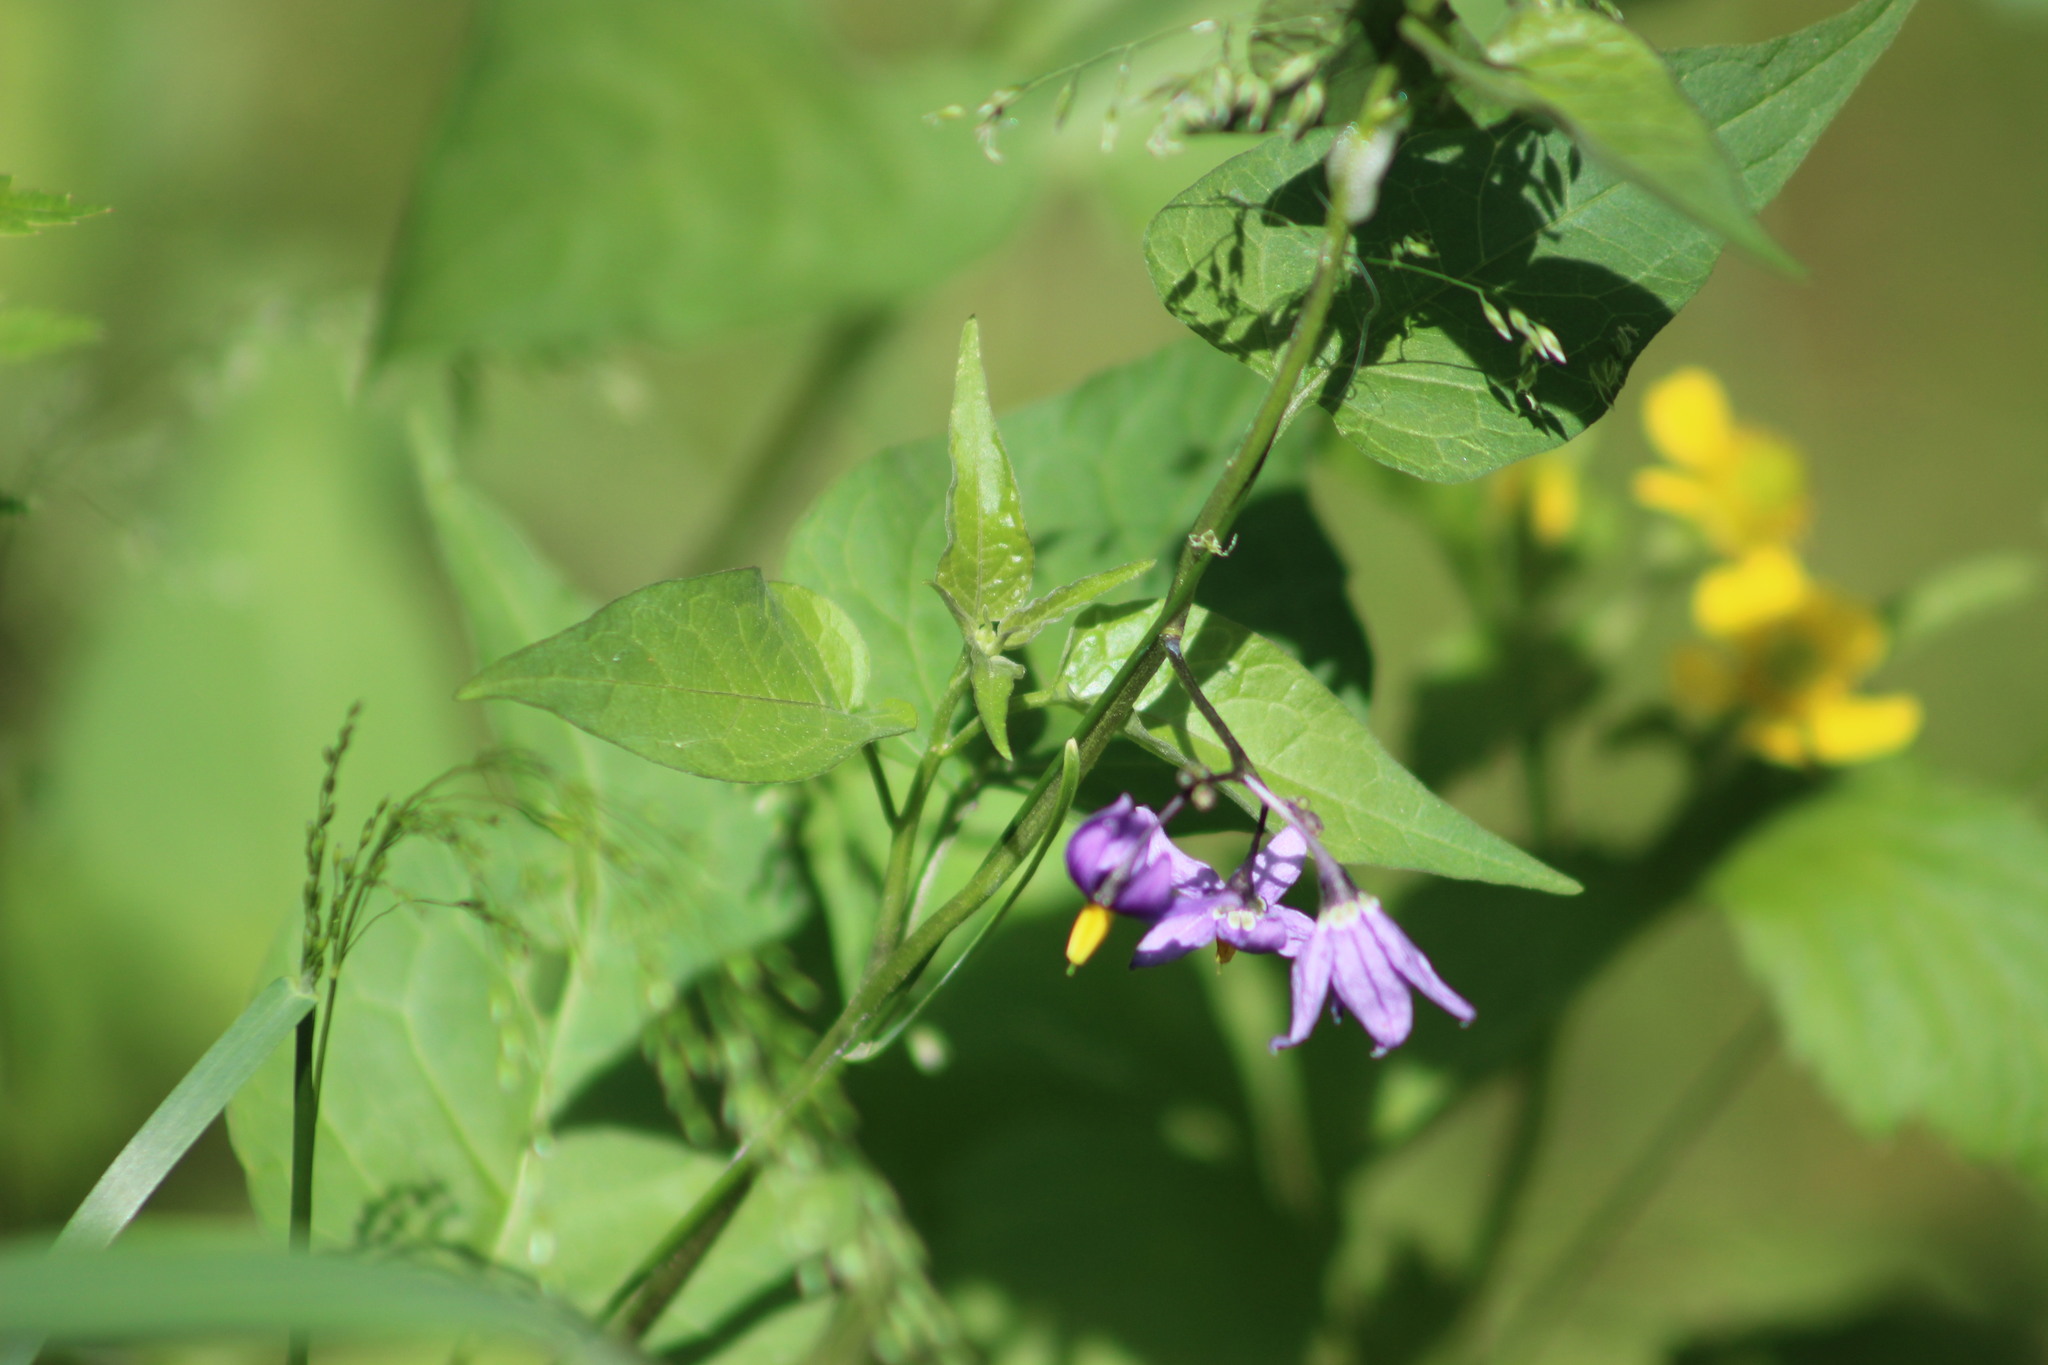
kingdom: Plantae
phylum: Tracheophyta
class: Magnoliopsida
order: Solanales
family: Solanaceae
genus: Solanum
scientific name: Solanum dulcamara
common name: Climbing nightshade
